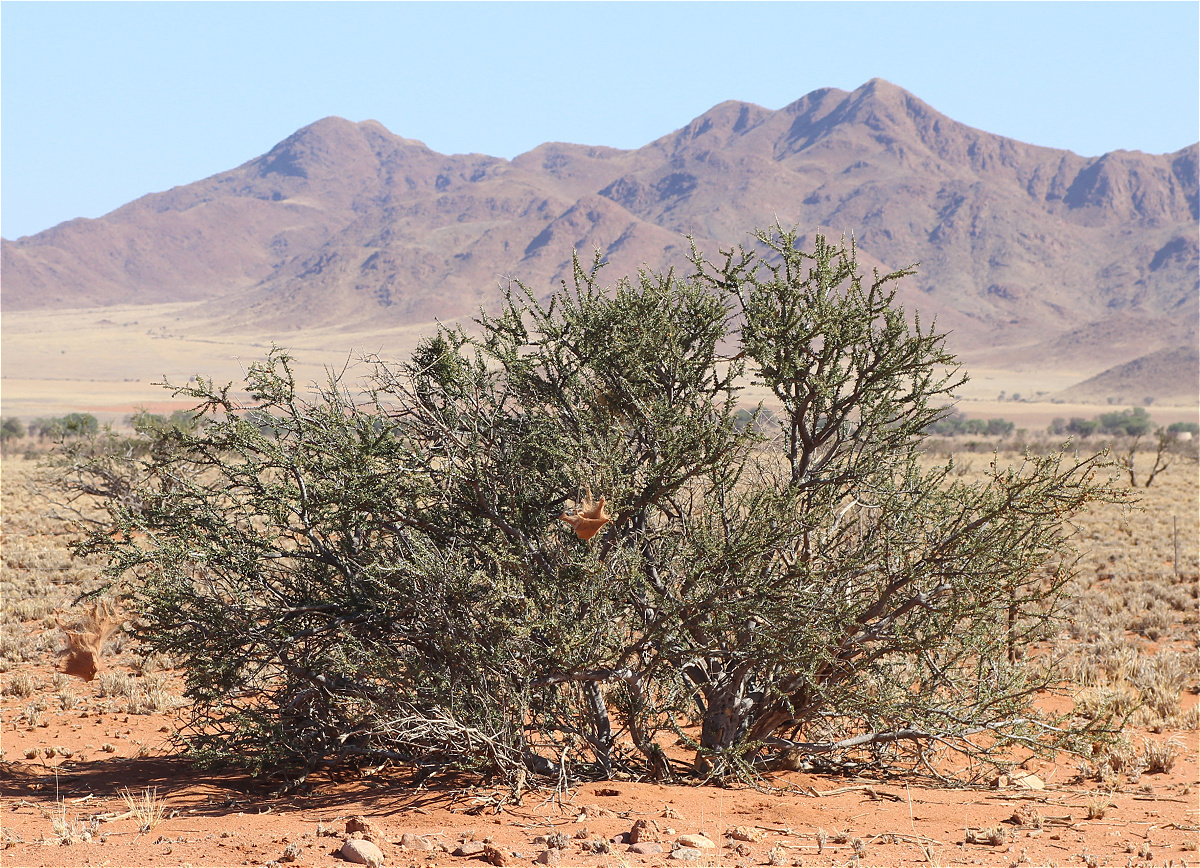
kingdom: Animalia
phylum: Arthropoda
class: Arachnida
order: Araneae
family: Eresidae
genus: Stegodyphus
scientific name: Stegodyphus dumicola
